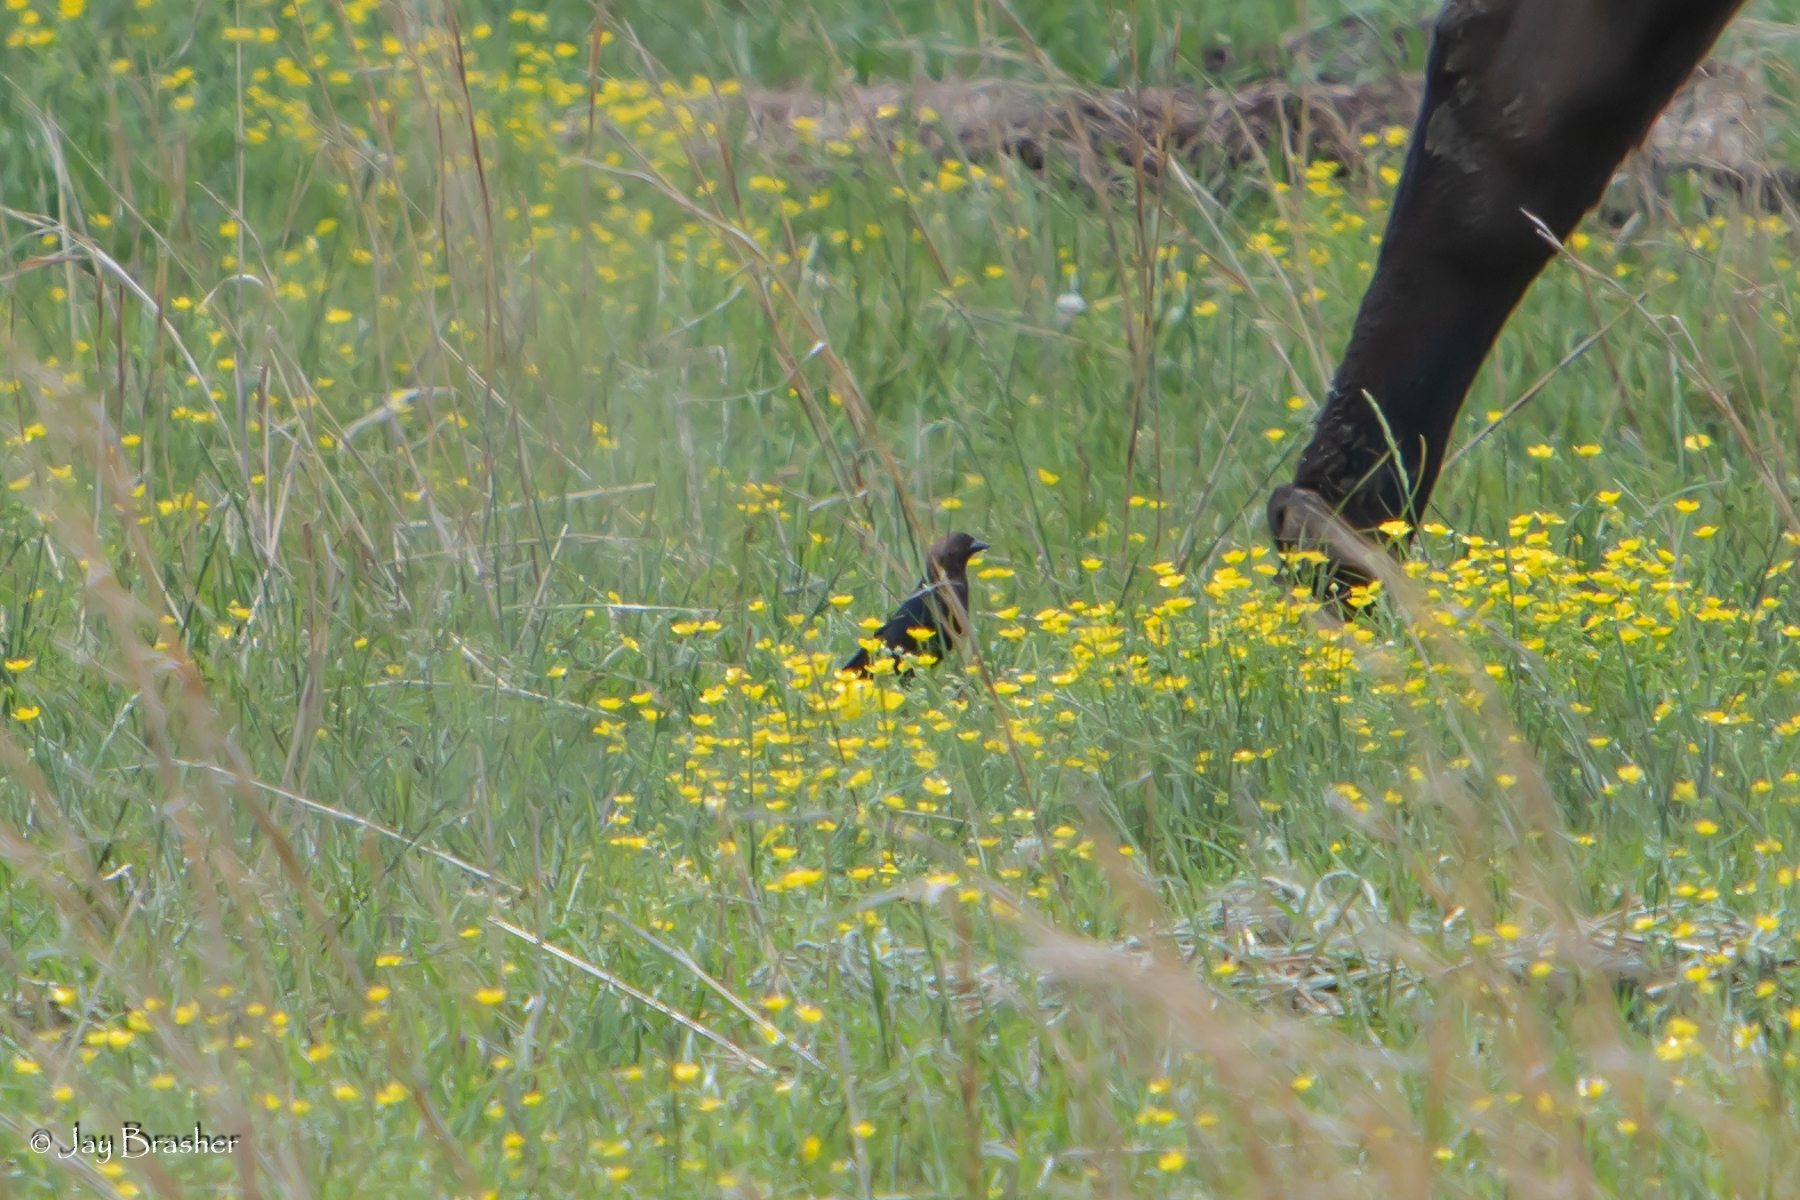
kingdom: Animalia
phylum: Chordata
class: Aves
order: Passeriformes
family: Icteridae
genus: Molothrus
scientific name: Molothrus ater
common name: Brown-headed cowbird
